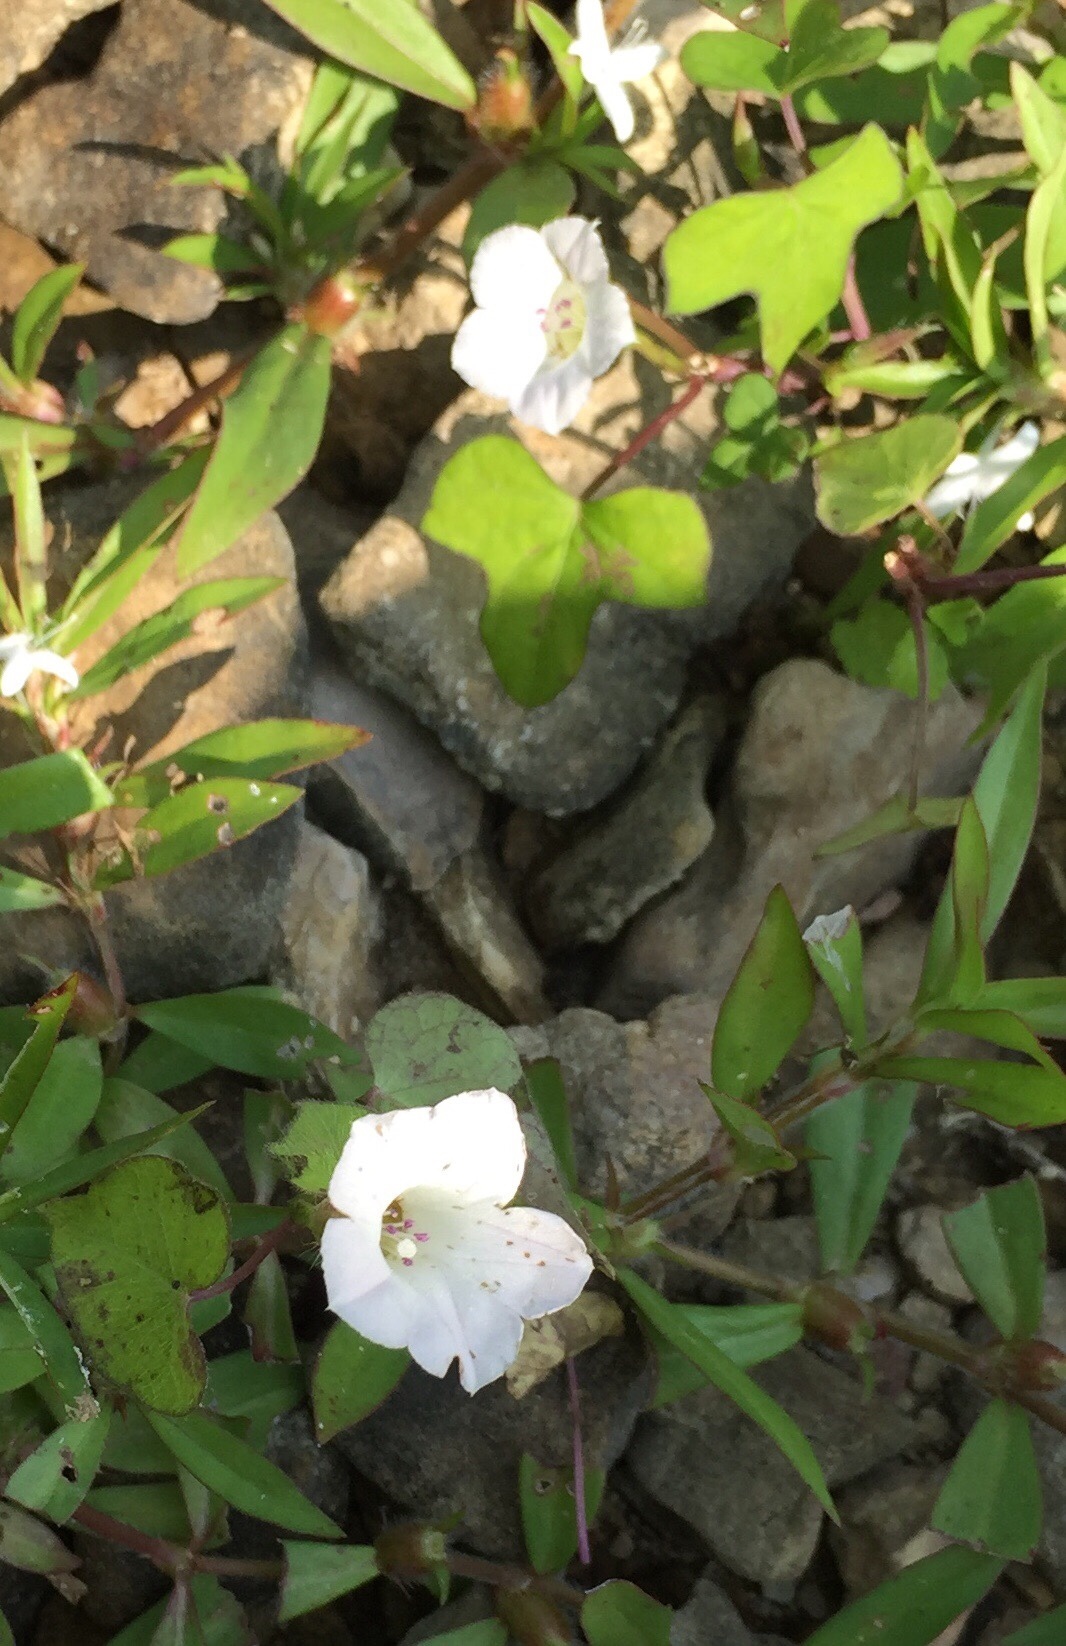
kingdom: Plantae
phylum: Tracheophyta
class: Magnoliopsida
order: Solanales
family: Convolvulaceae
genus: Ipomoea
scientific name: Ipomoea lacunosa
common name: White morning-glory
